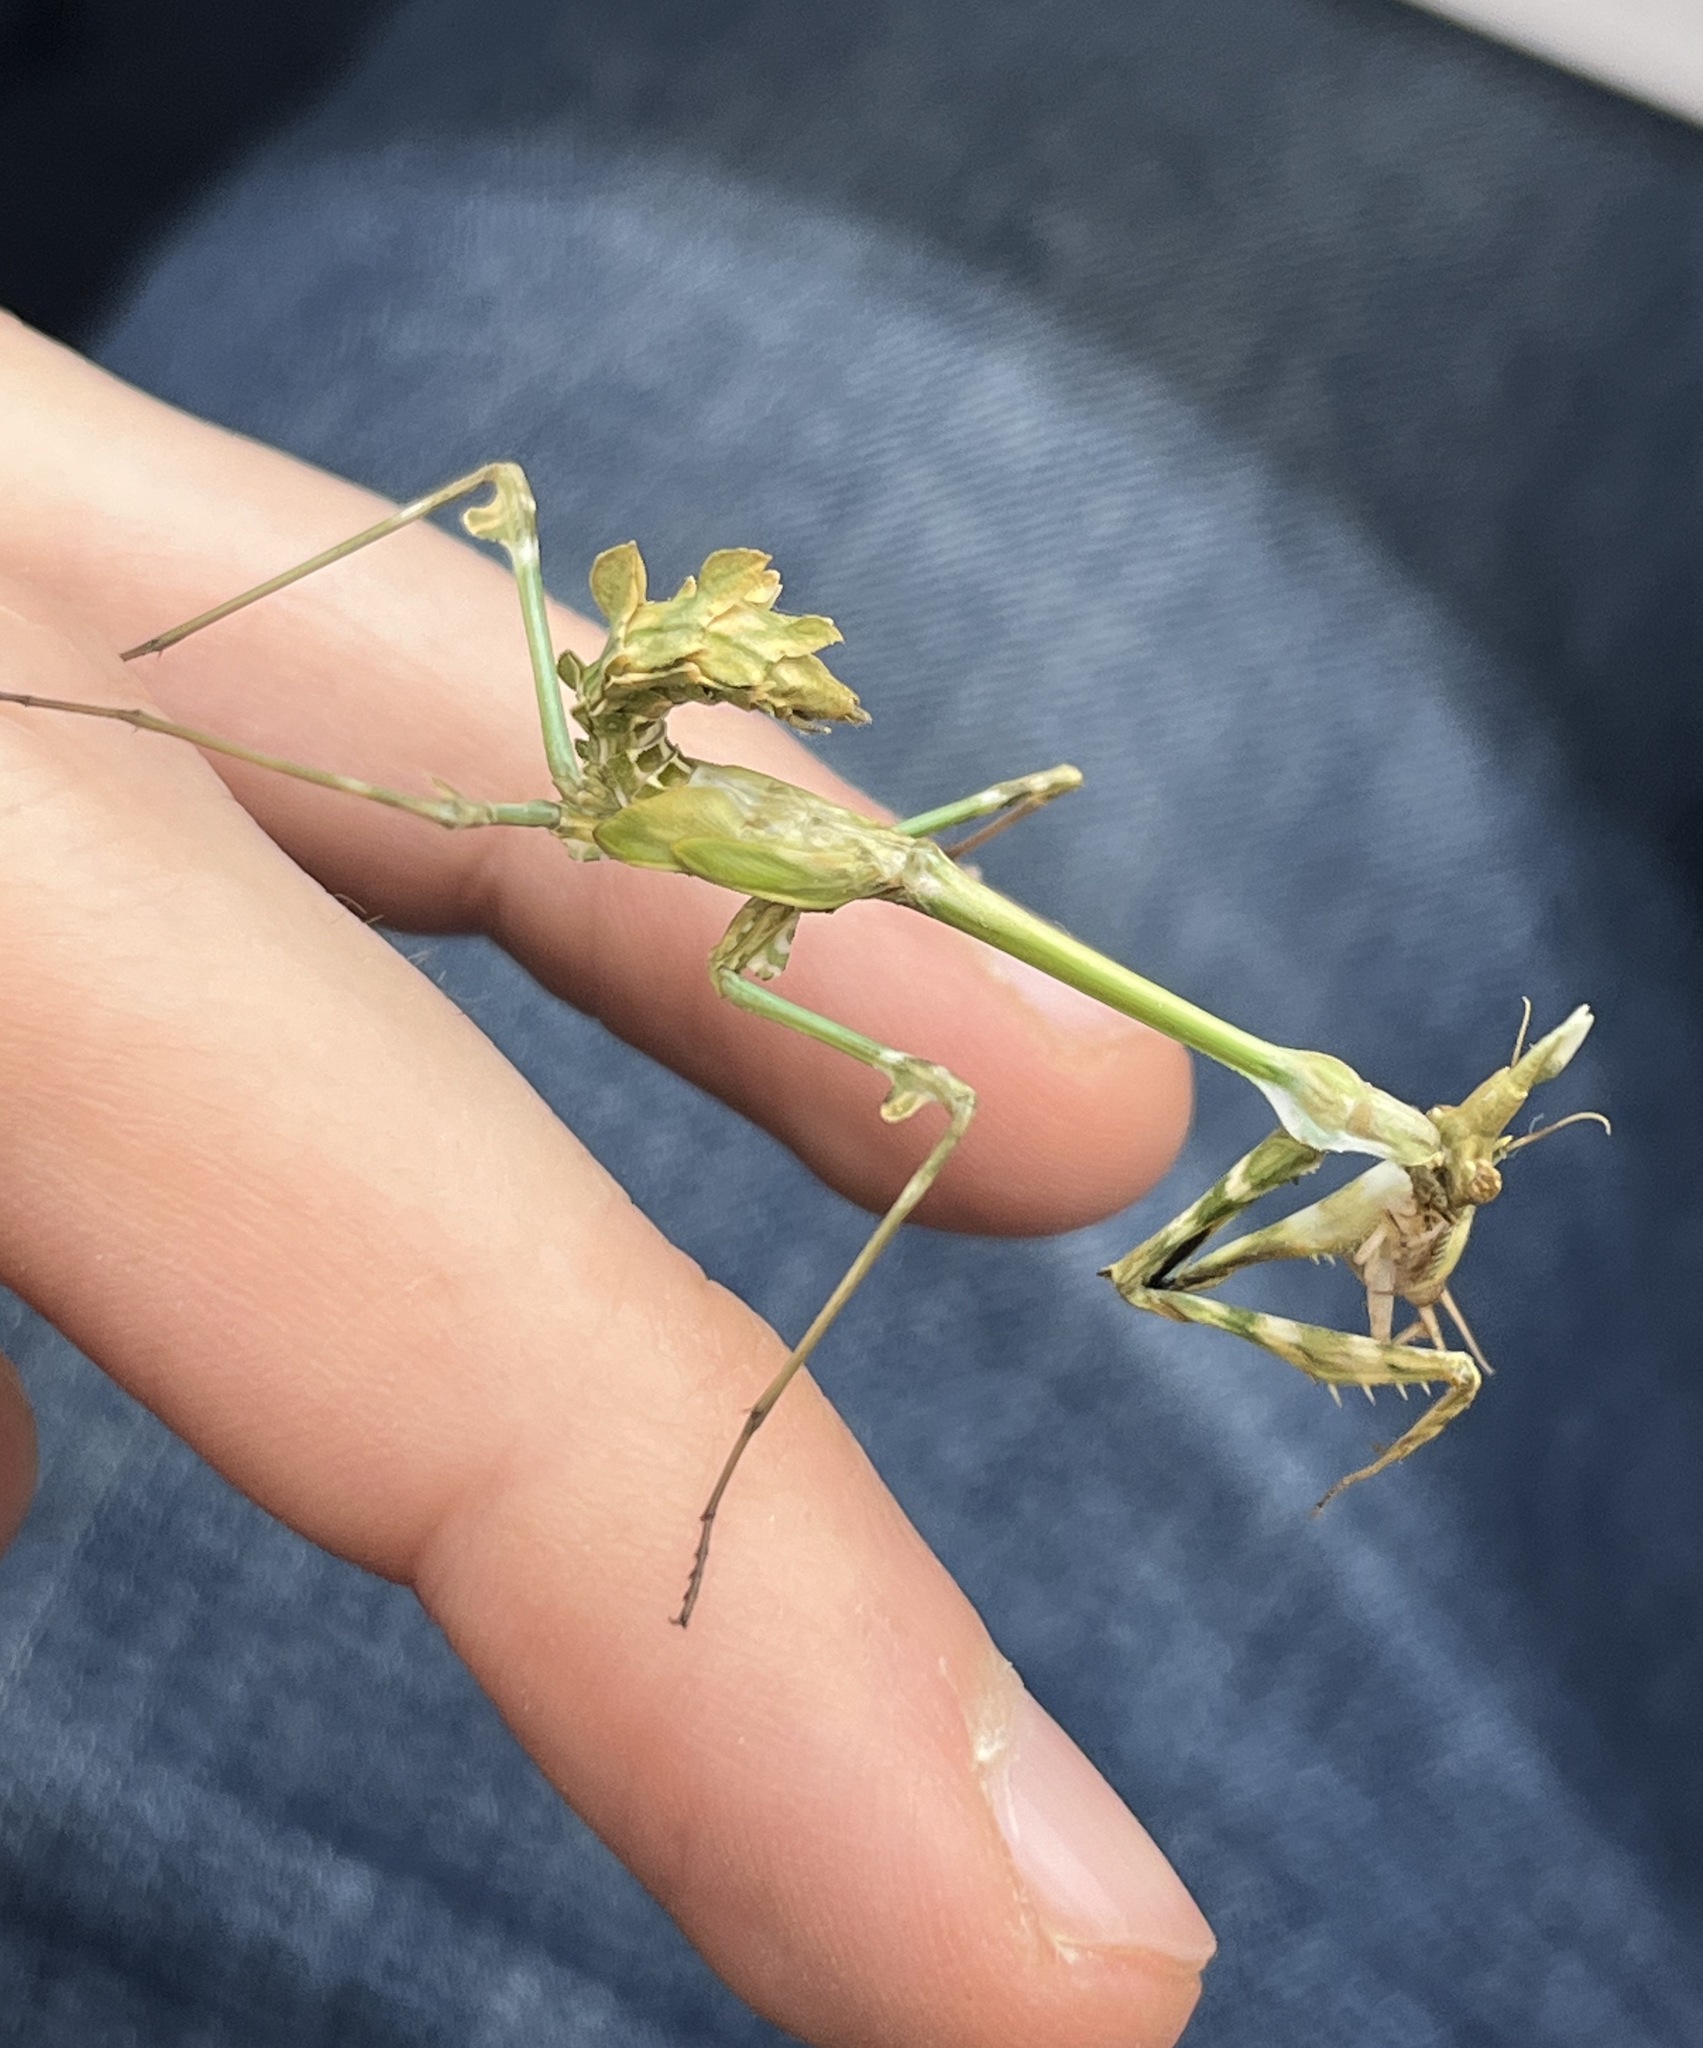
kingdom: Animalia
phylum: Arthropoda
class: Insecta
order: Mantodea
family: Empusidae
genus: Empusa
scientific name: Empusa fasciata
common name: Devil's mare
